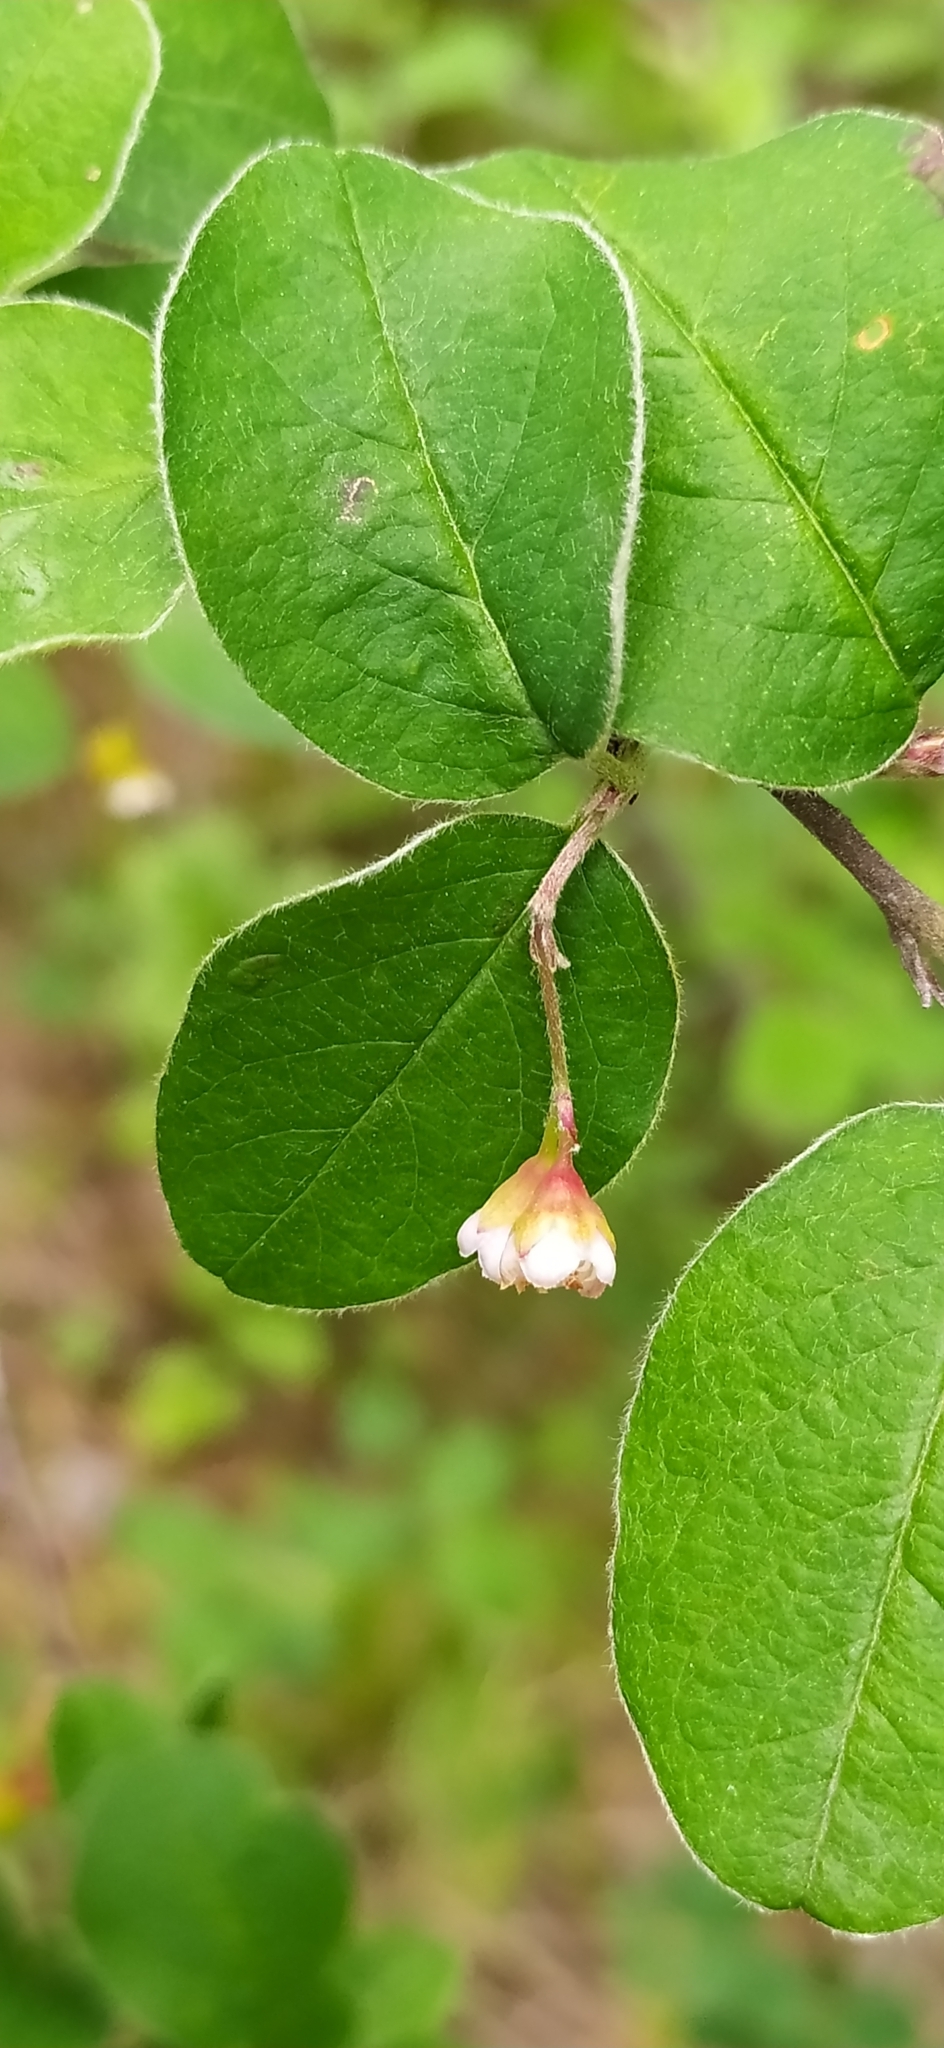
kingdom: Plantae
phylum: Tracheophyta
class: Magnoliopsida
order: Rosales
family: Rosaceae
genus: Cotoneaster
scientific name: Cotoneaster melanocarpus
